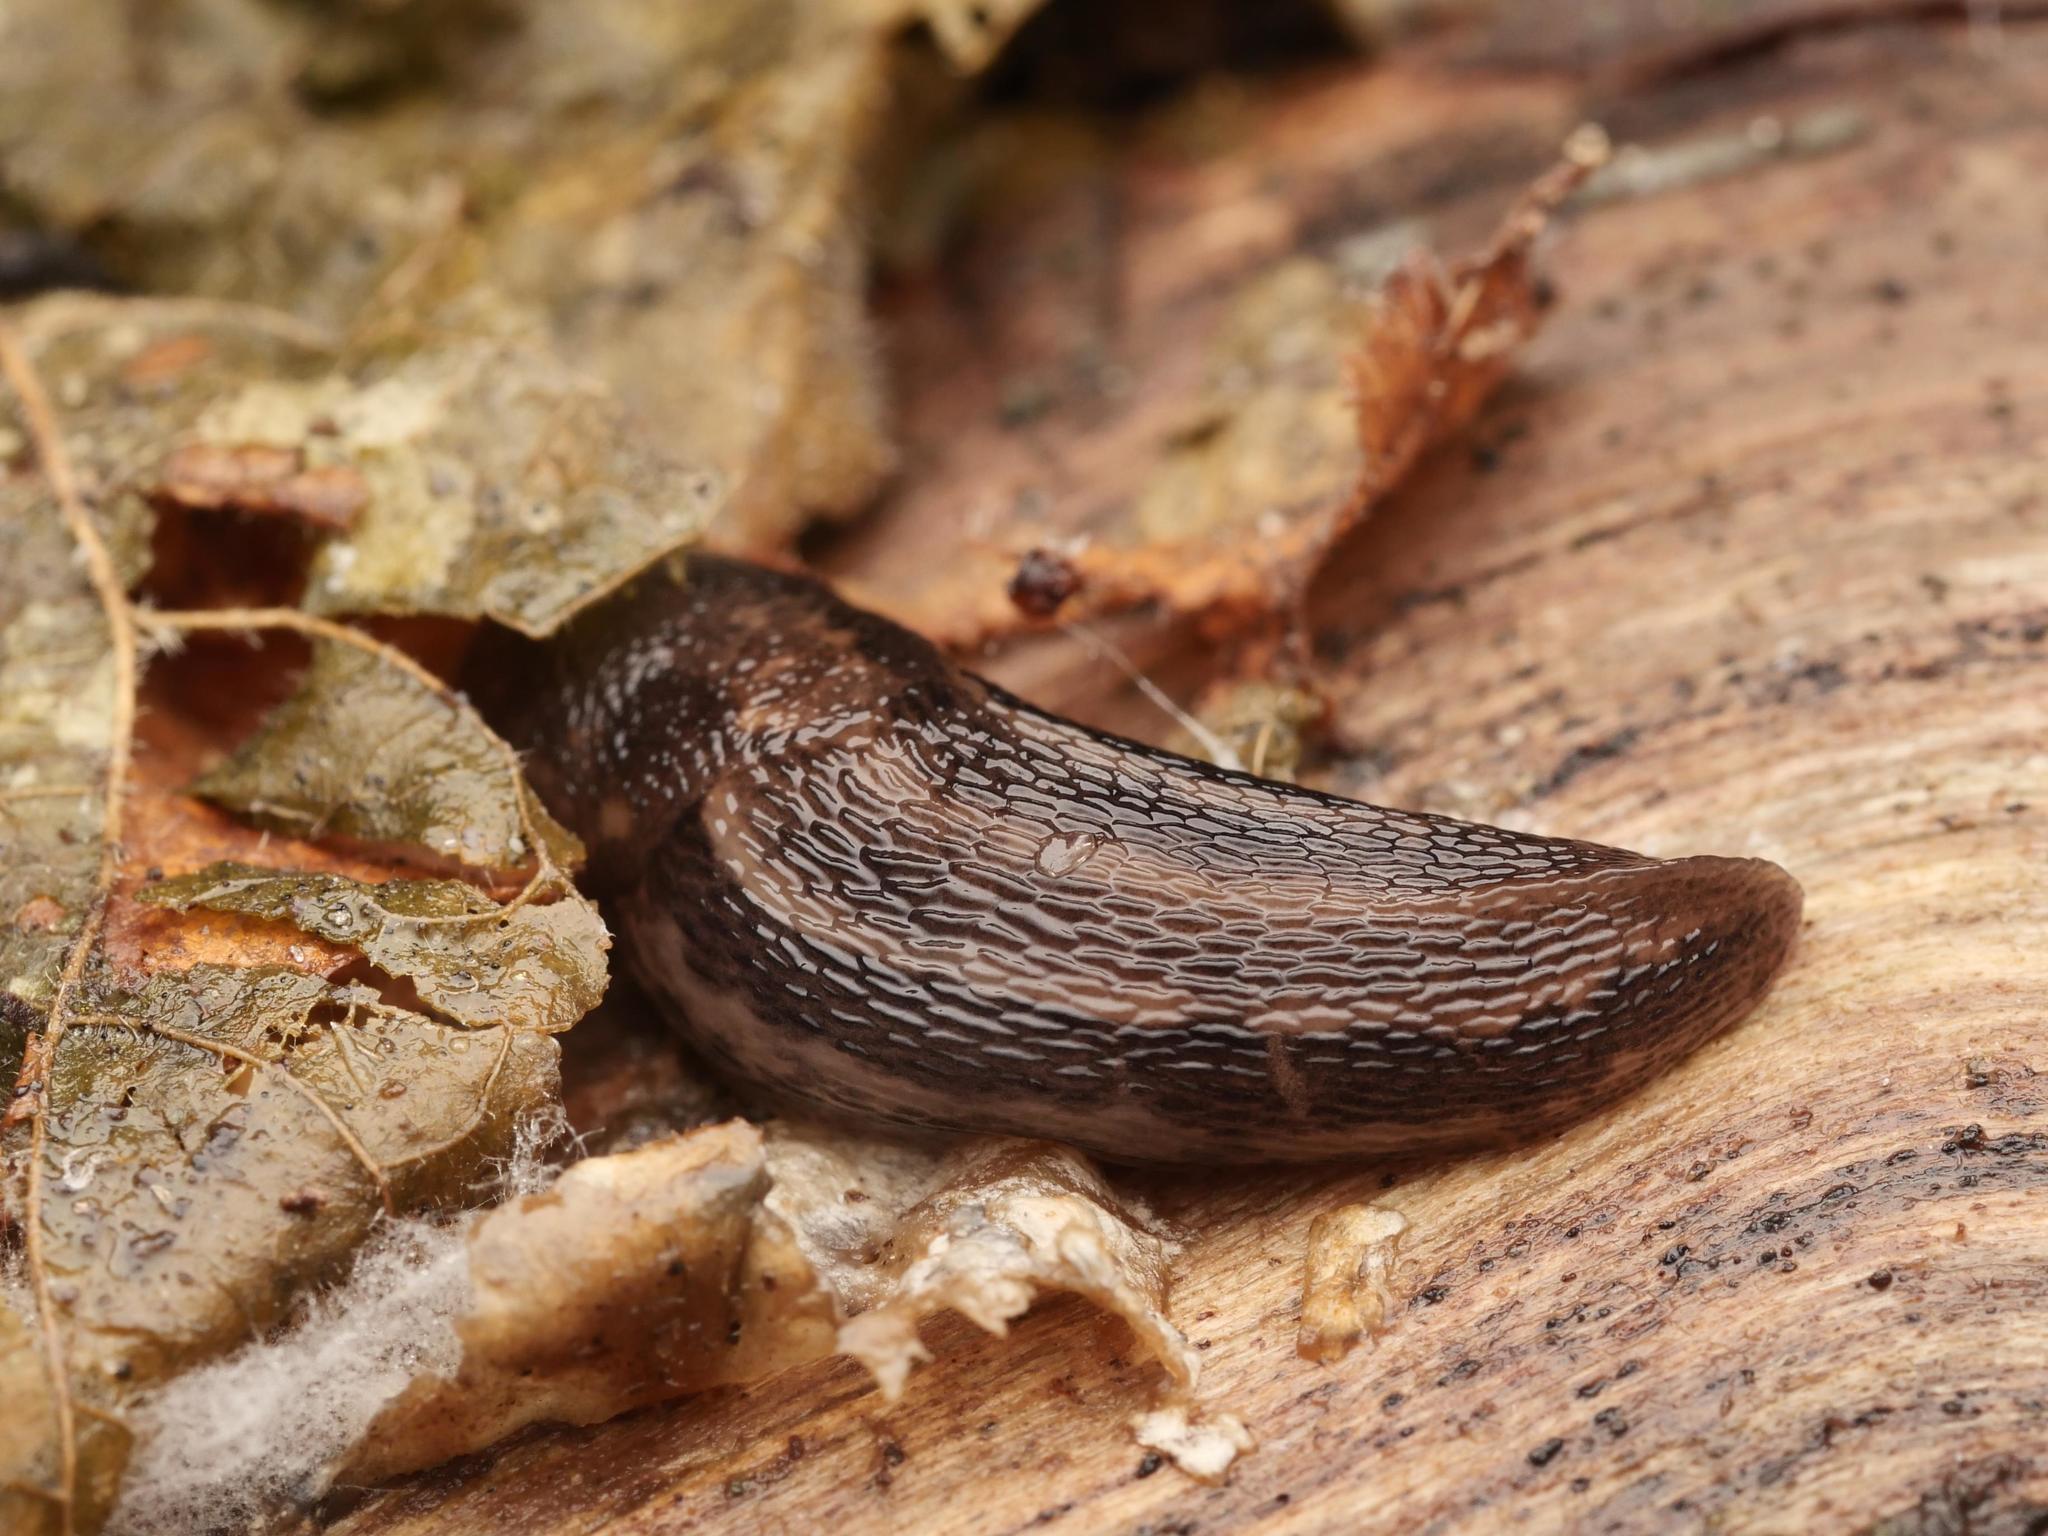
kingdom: Animalia
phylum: Mollusca
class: Gastropoda
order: Stylommatophora
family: Limacidae
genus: Limax
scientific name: Limax maximus
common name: Great grey slug
